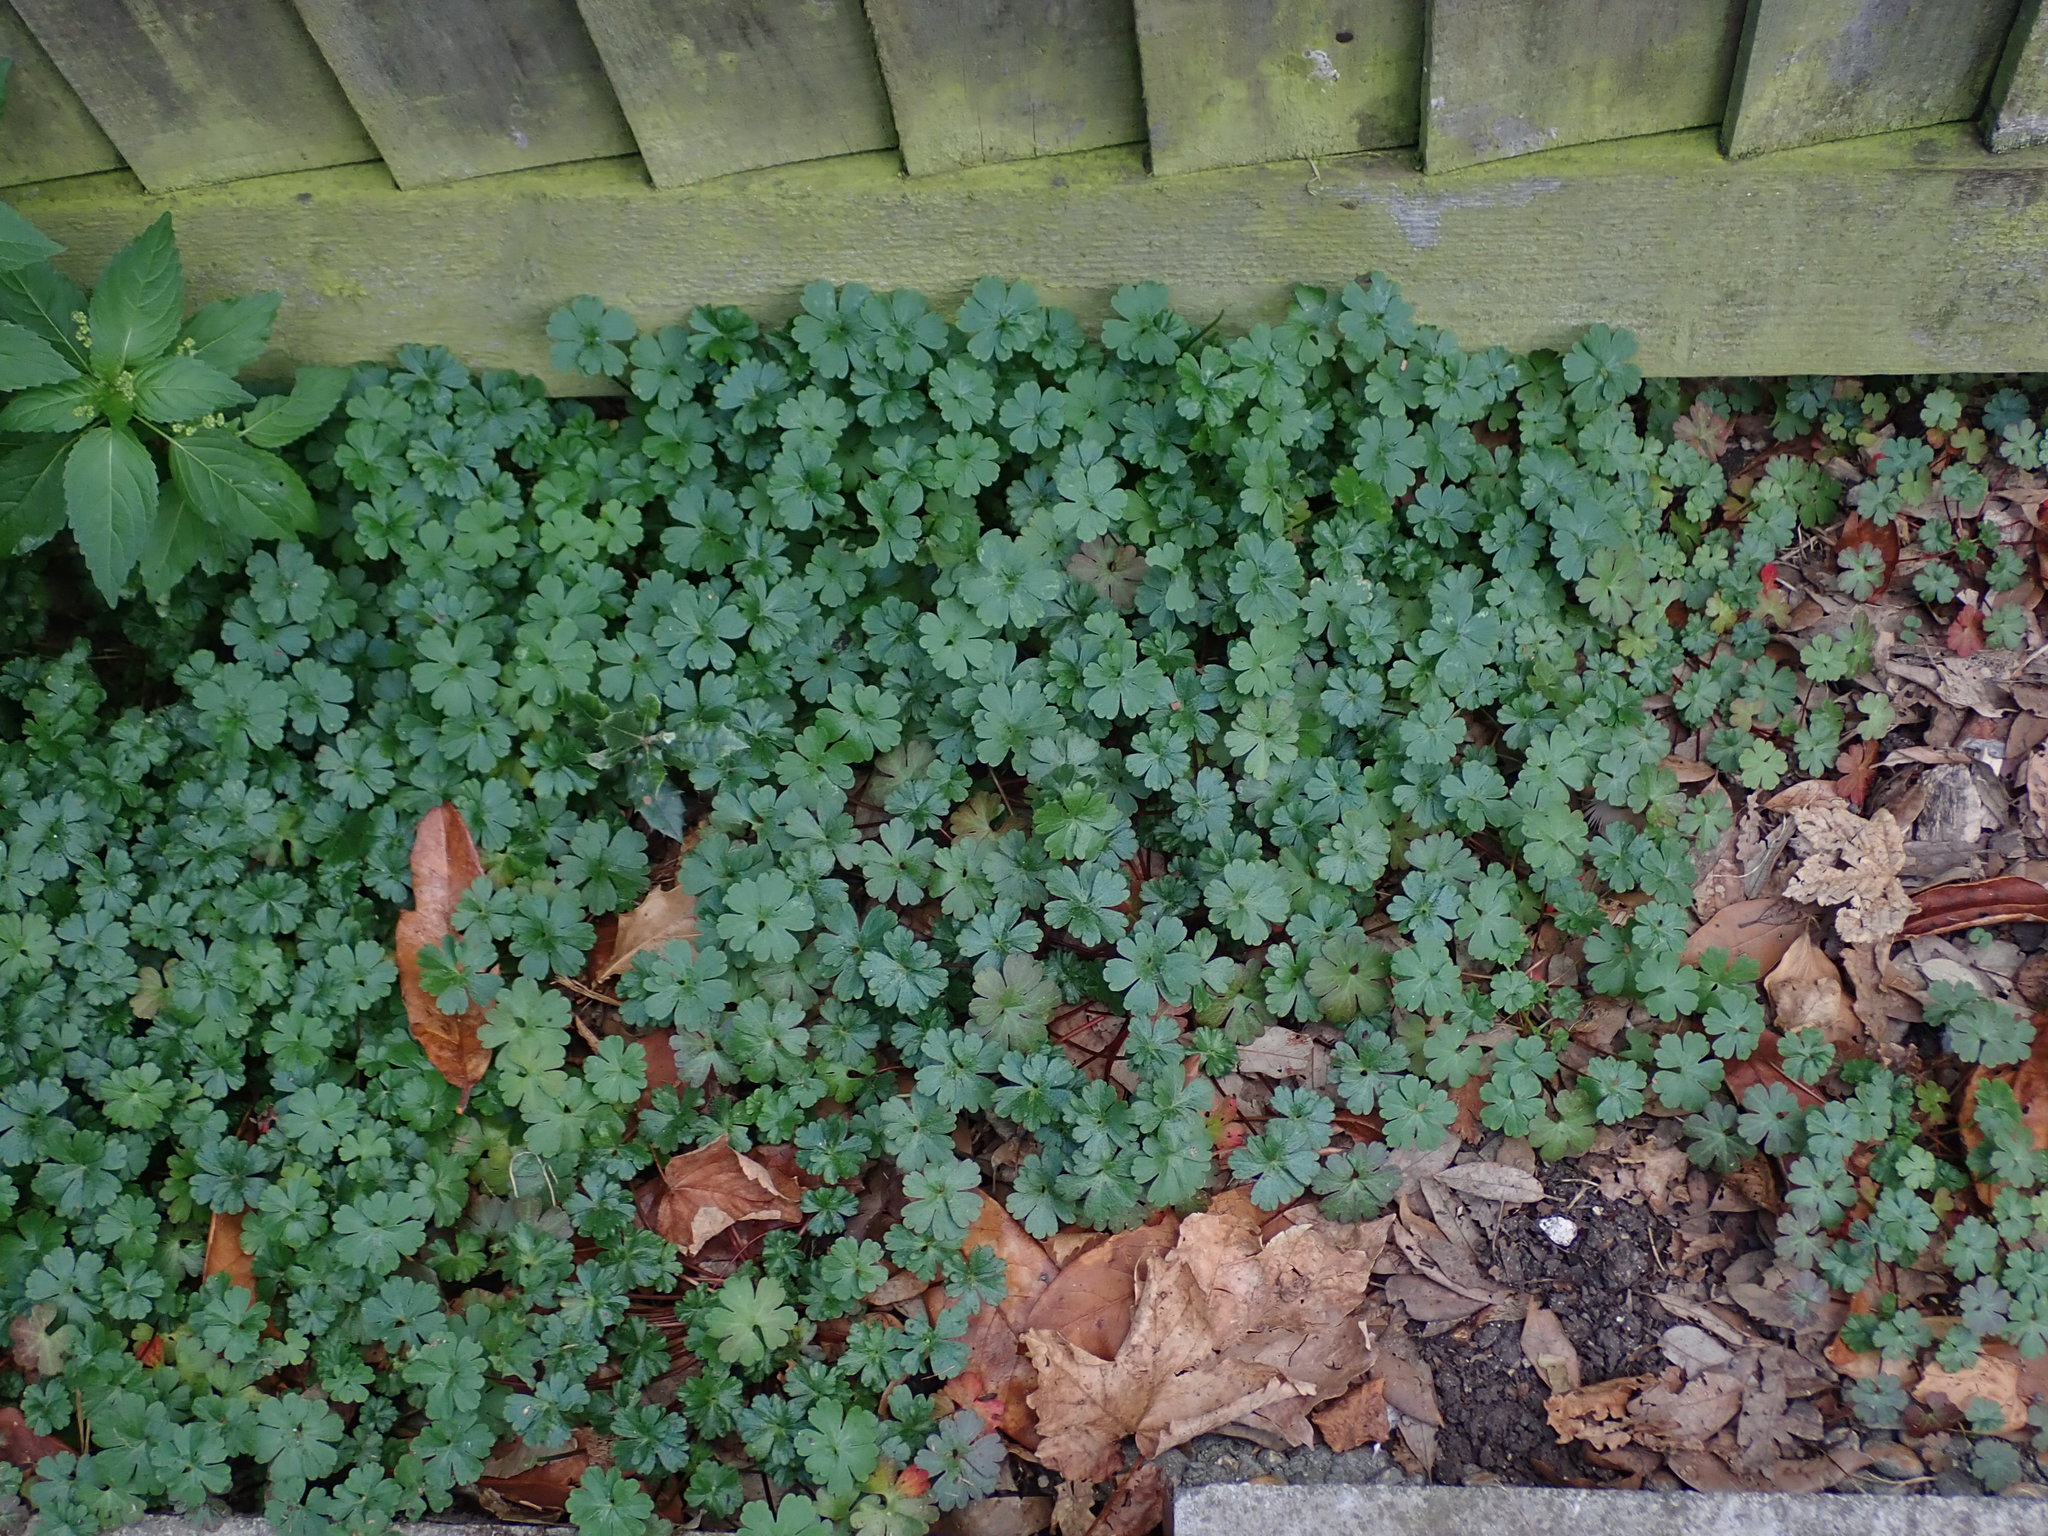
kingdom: Plantae
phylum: Tracheophyta
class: Magnoliopsida
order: Geraniales
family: Geraniaceae
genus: Geranium
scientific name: Geranium lucidum
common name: Shining crane's-bill
